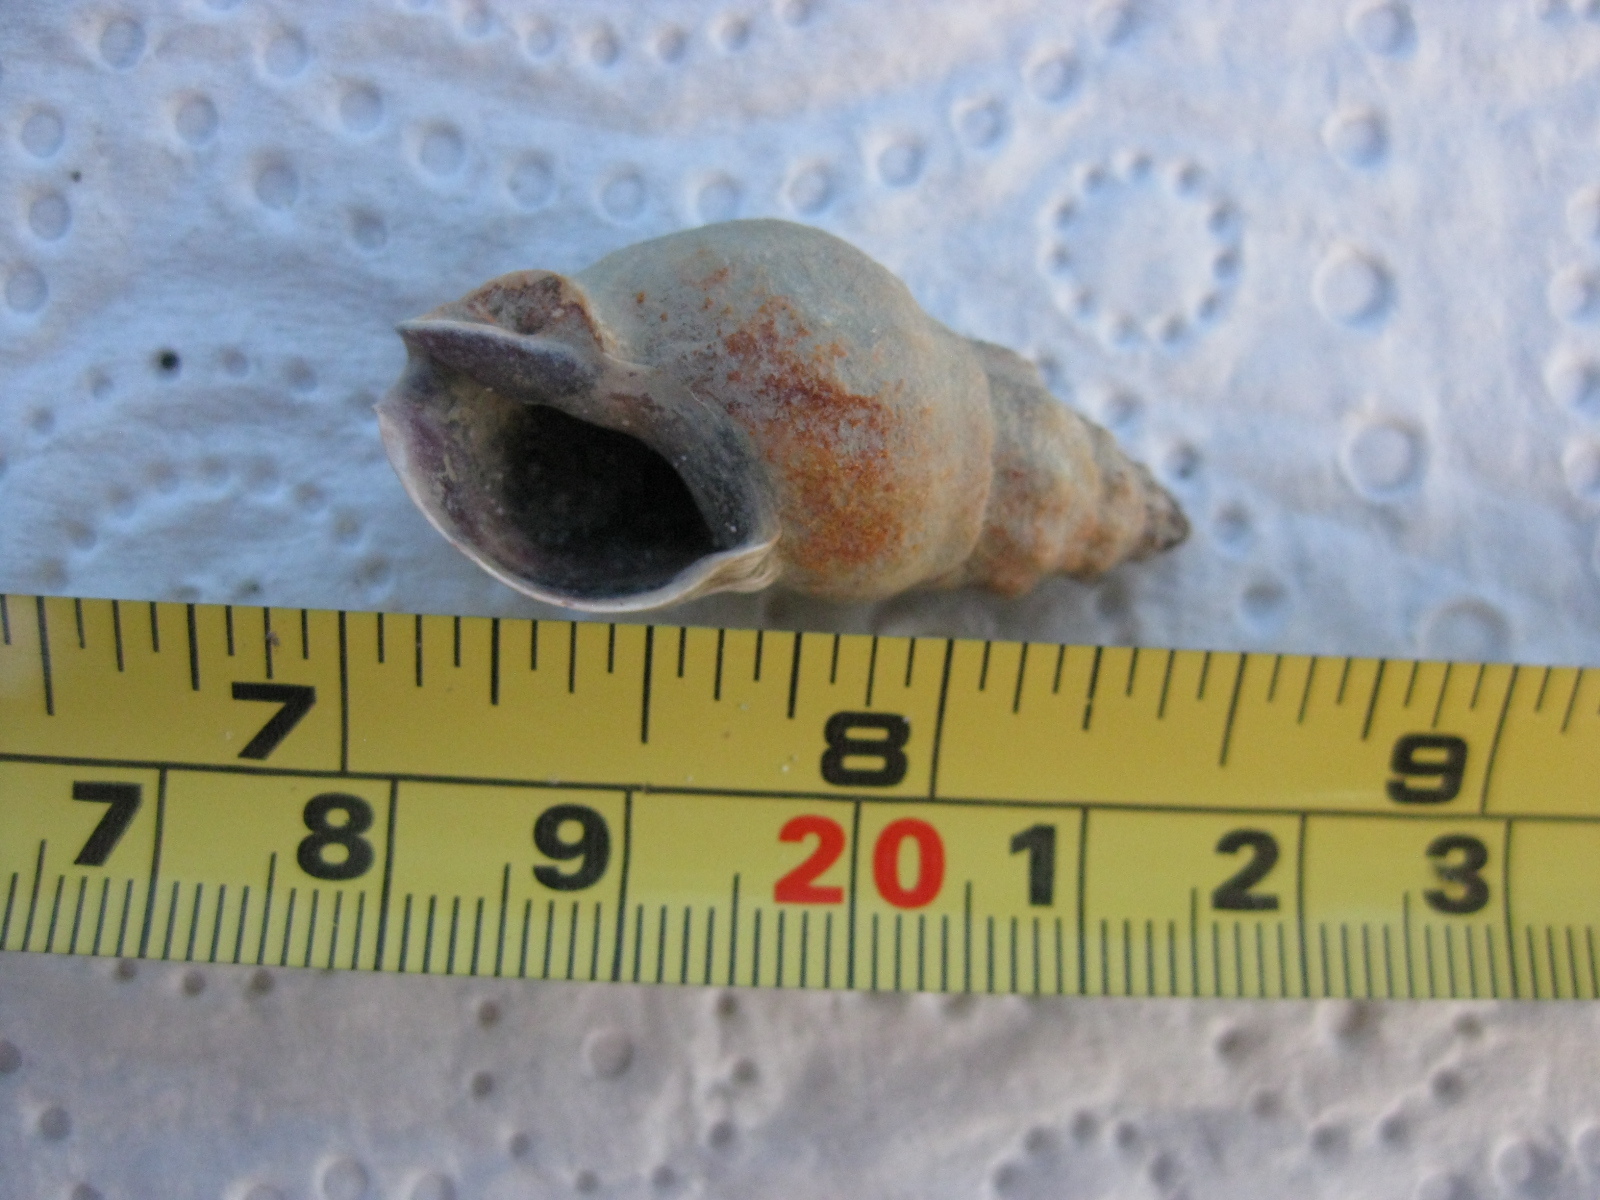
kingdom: Animalia
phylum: Mollusca
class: Gastropoda
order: Neogastropoda
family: Cominellidae
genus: Cominella
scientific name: Cominella glandiformis
